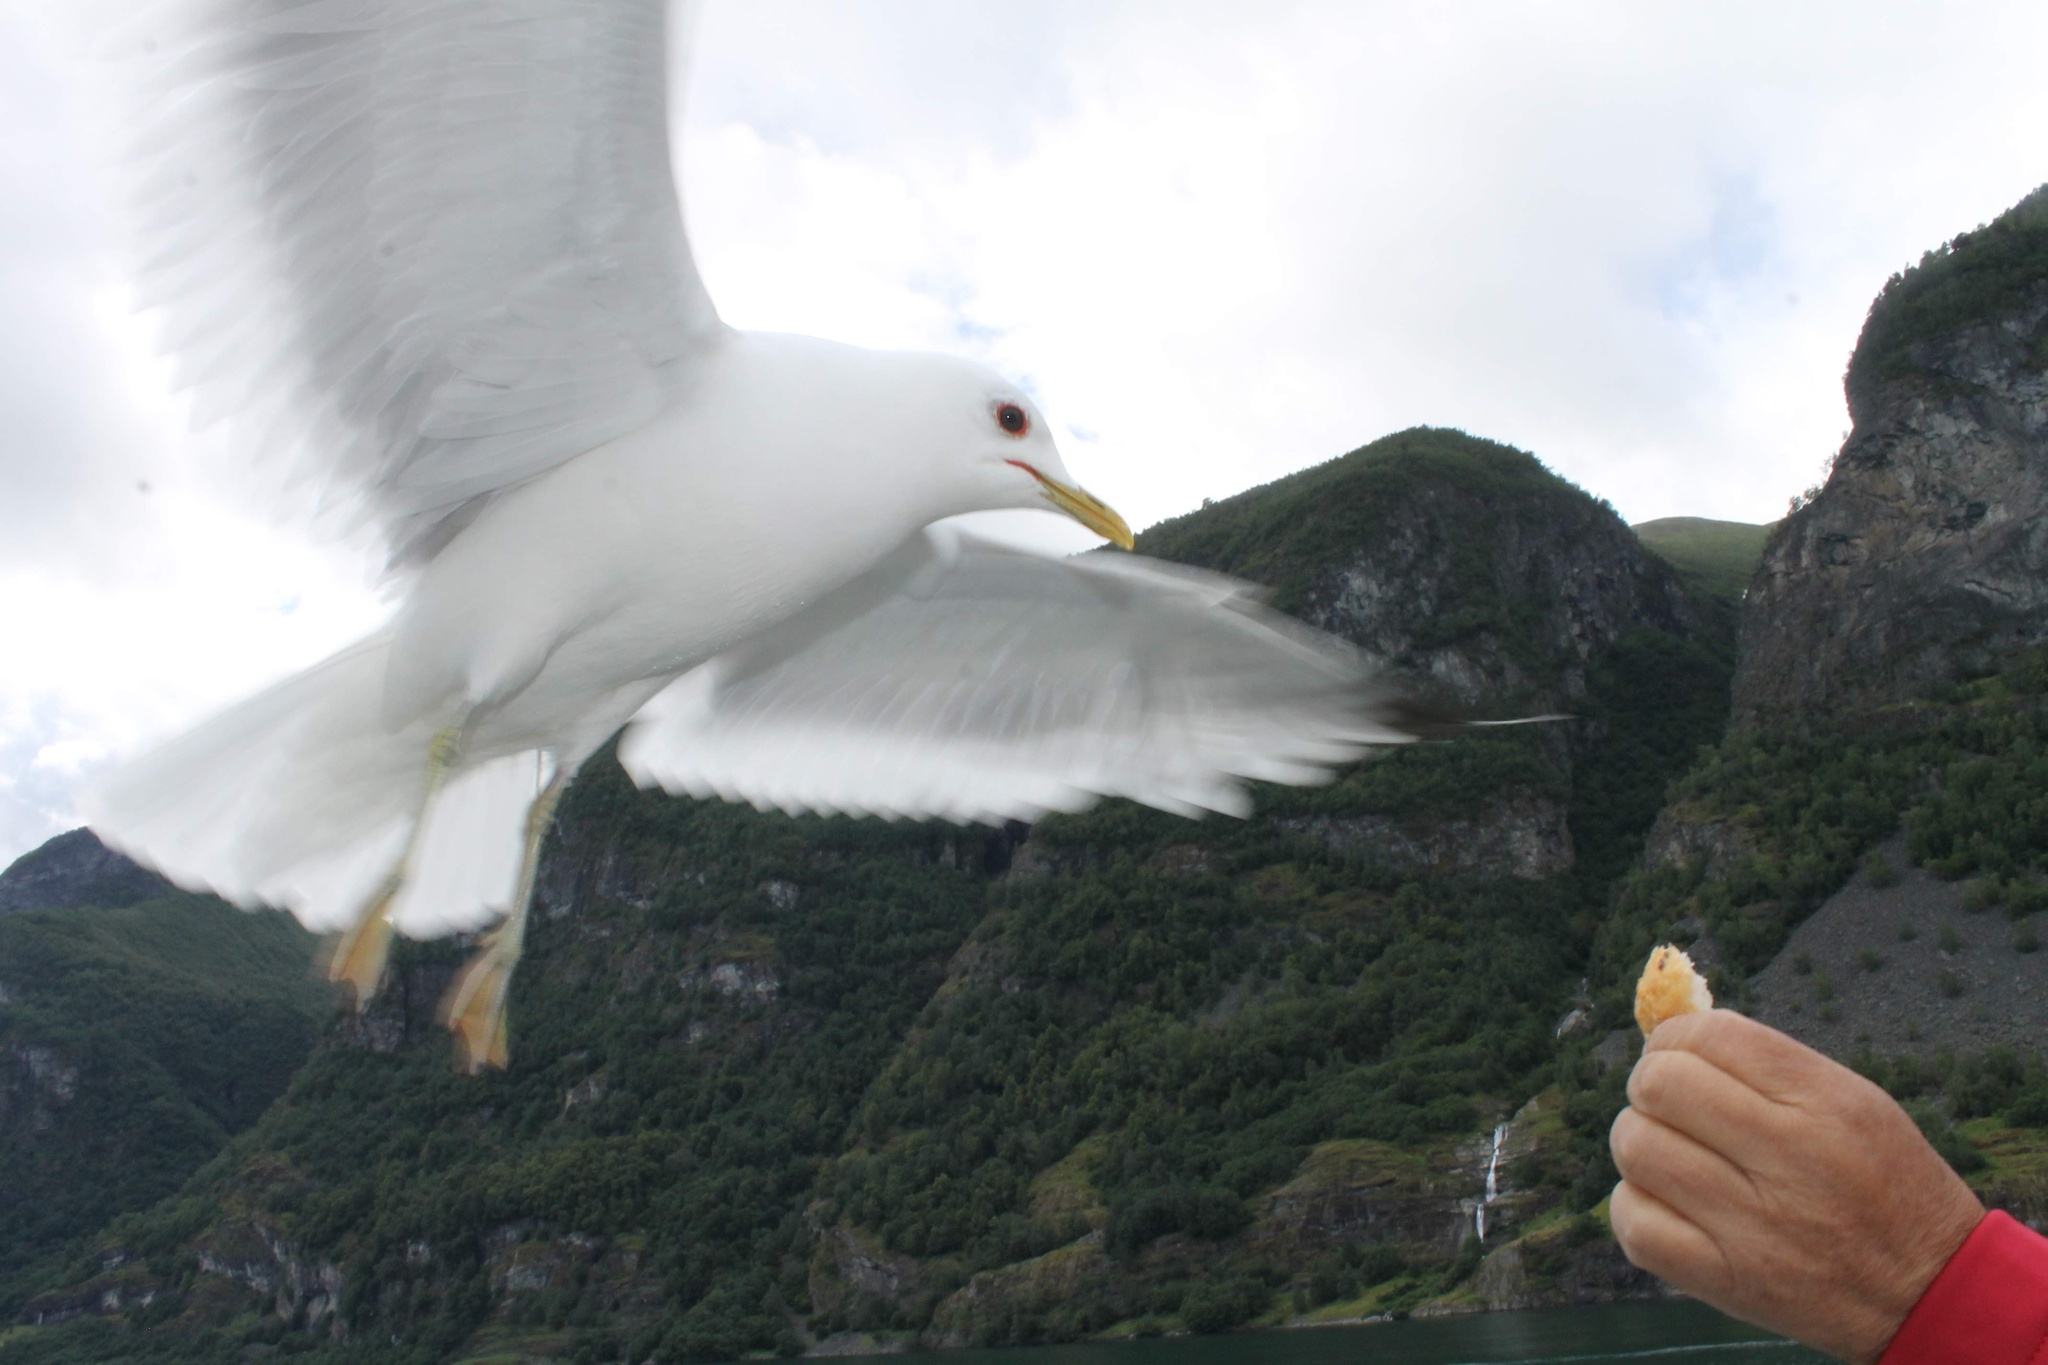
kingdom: Animalia
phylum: Chordata
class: Aves
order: Charadriiformes
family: Laridae
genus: Larus
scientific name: Larus canus
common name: Mew gull
